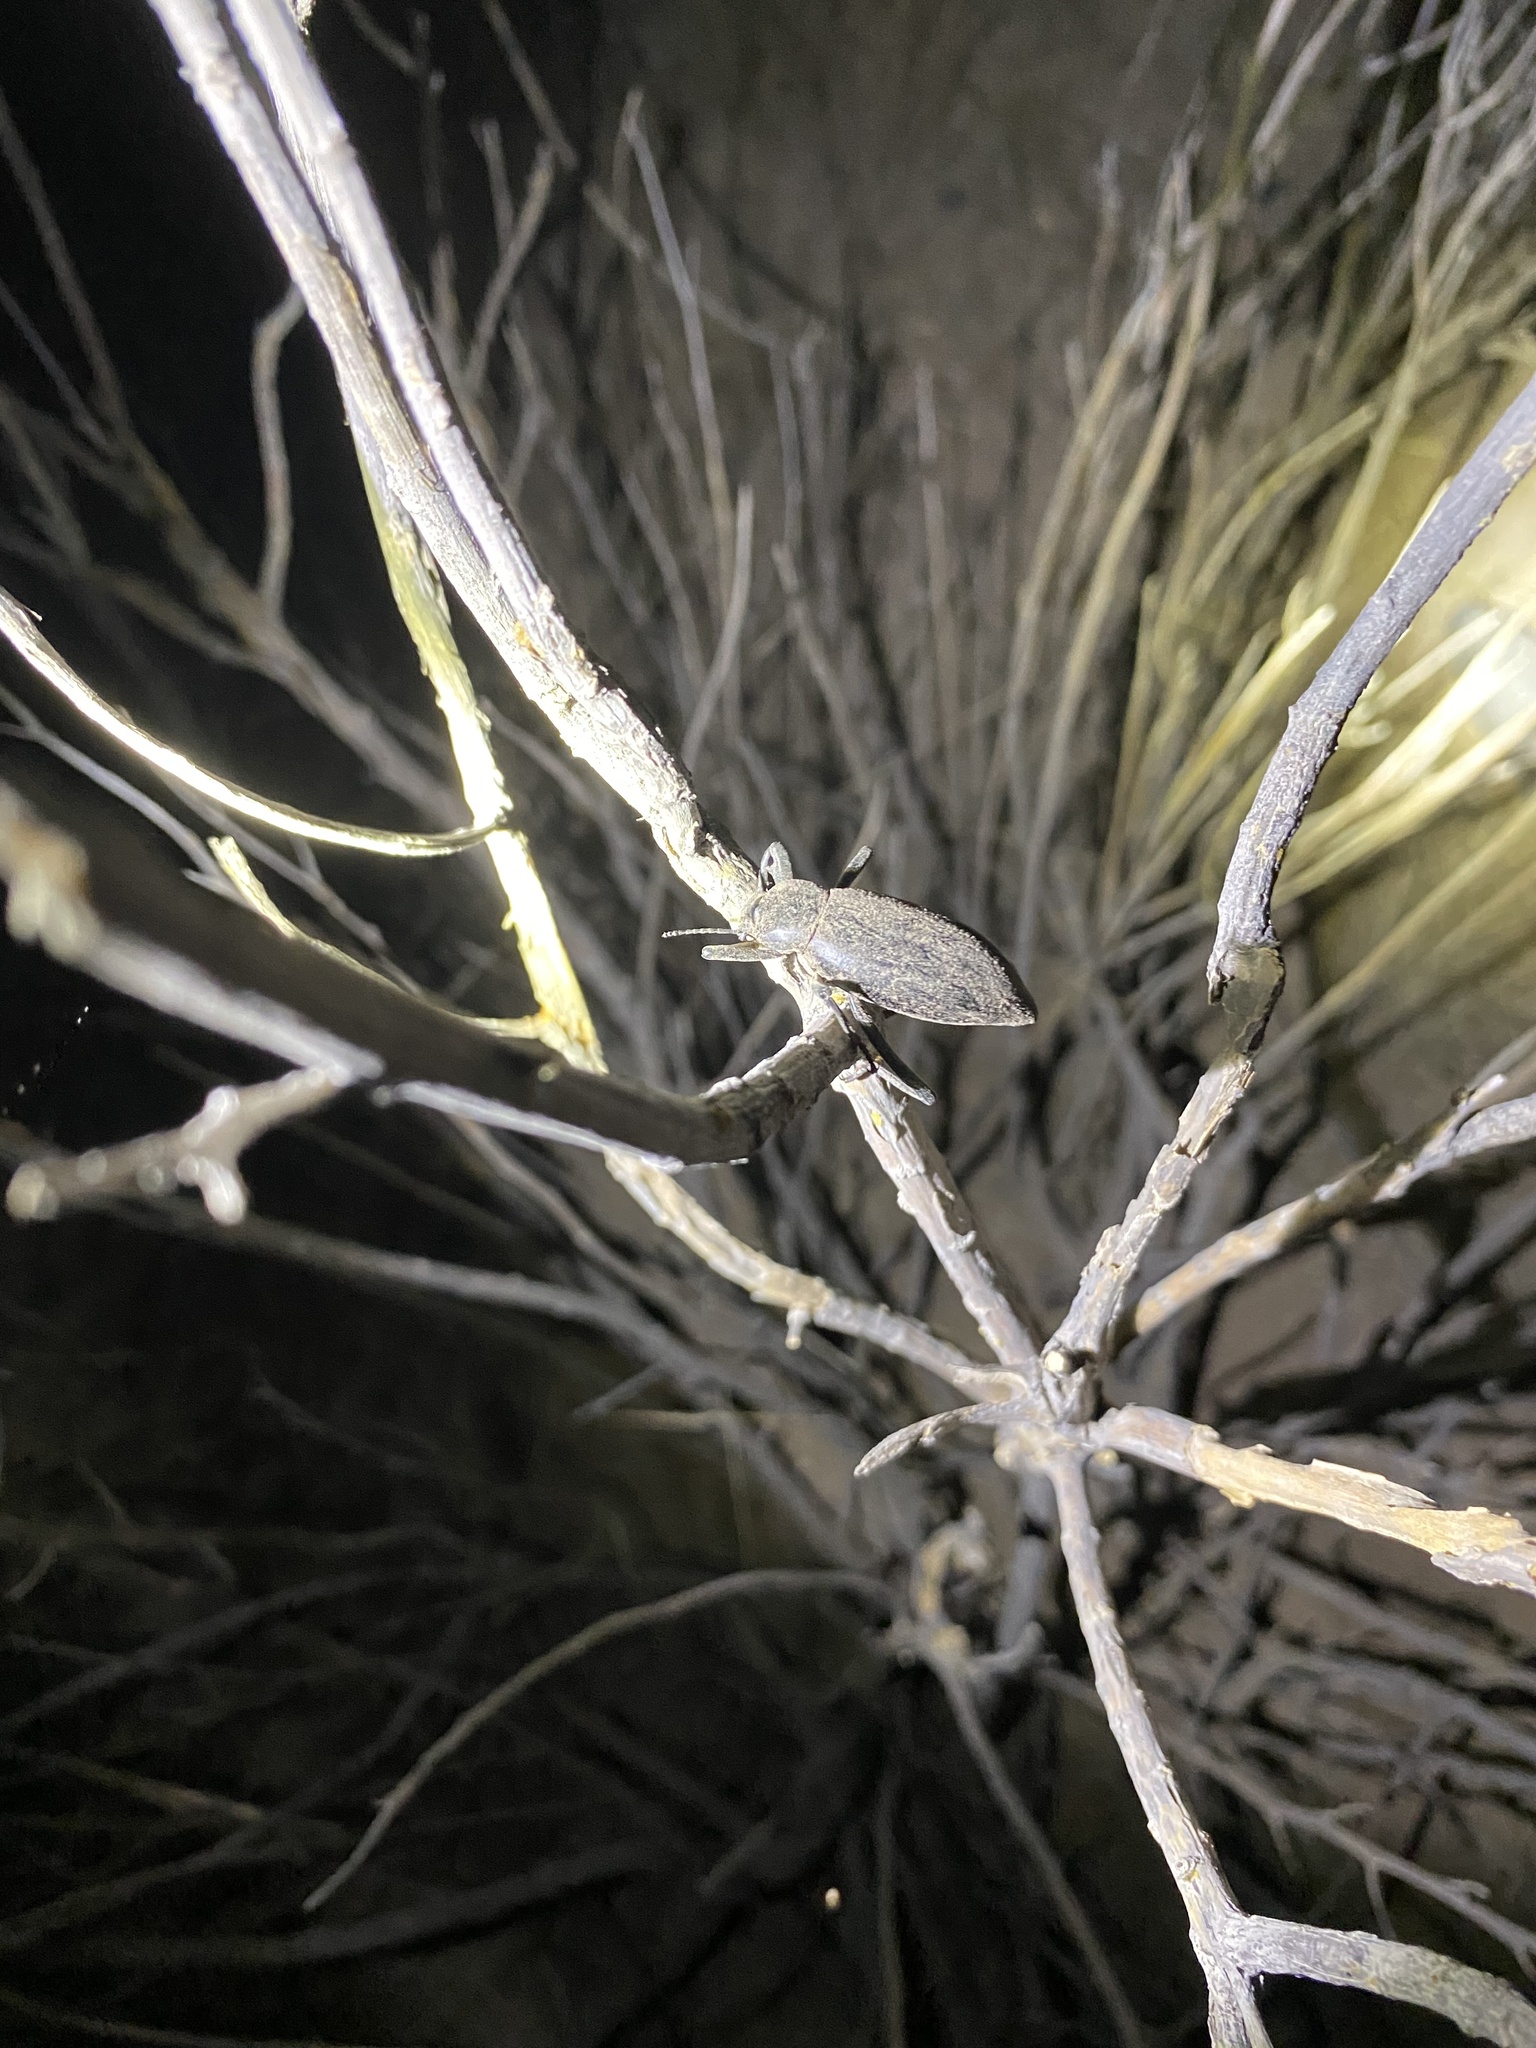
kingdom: Animalia
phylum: Arthropoda
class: Insecta
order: Coleoptera
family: Tenebrionidae
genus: Eleodes
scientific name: Eleodes armata
